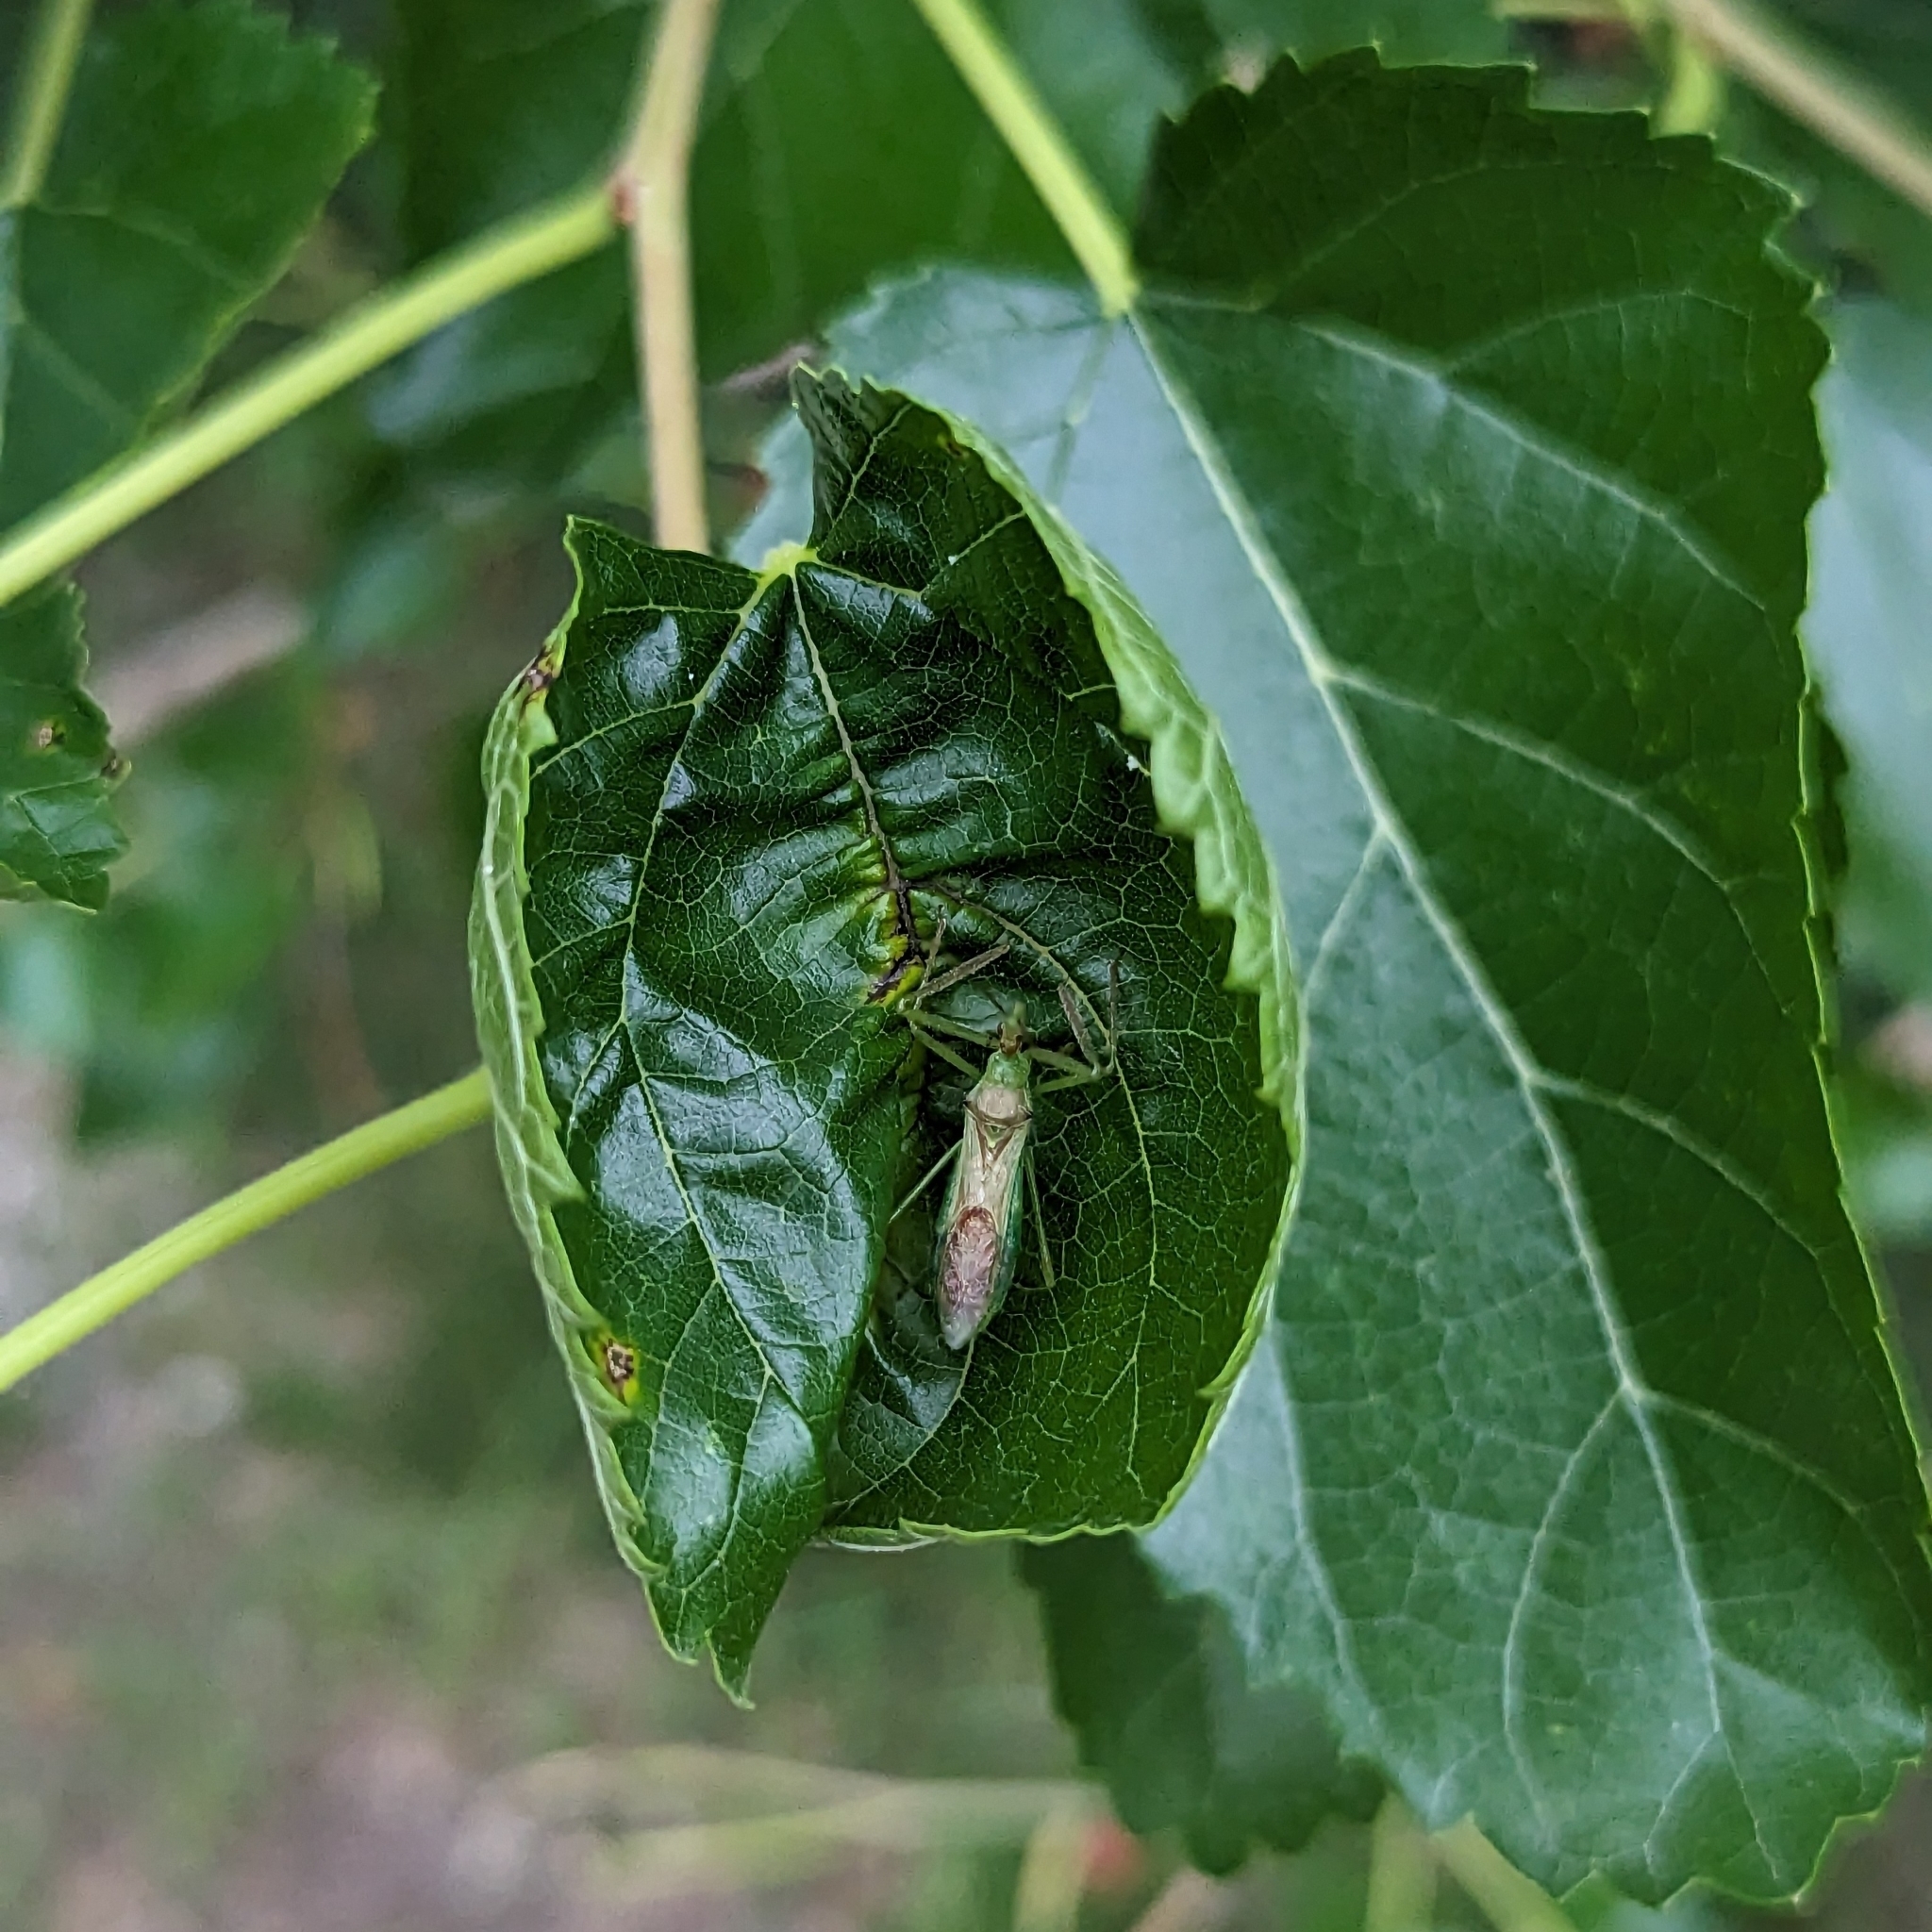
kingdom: Animalia
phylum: Arthropoda
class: Insecta
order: Hemiptera
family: Reduviidae
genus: Zelus
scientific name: Zelus luridus
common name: Pale green assassin bug
